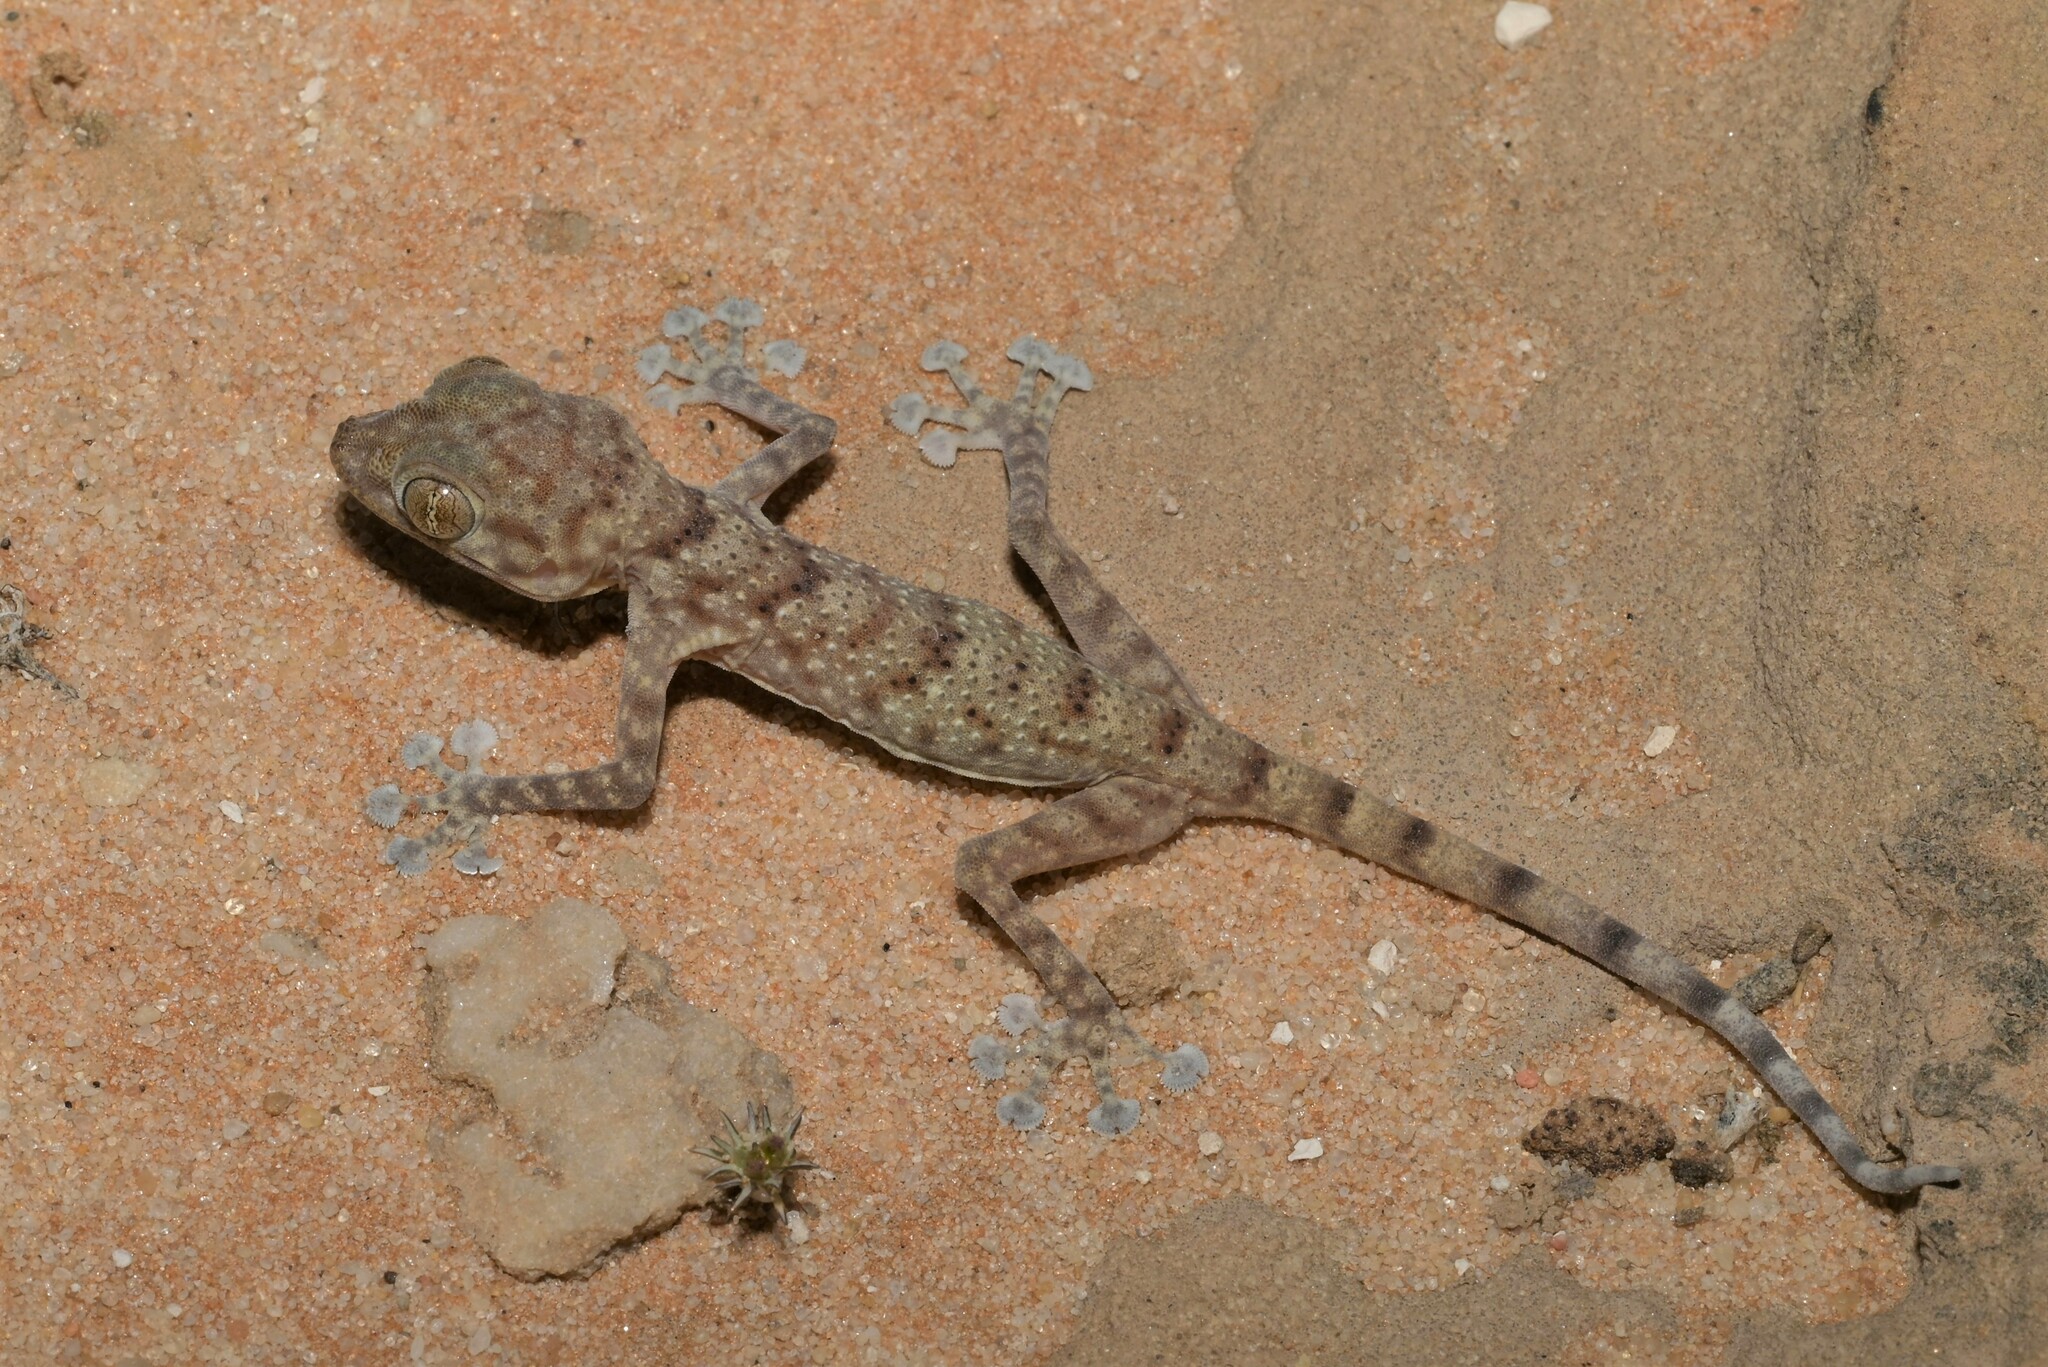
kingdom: Animalia
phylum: Chordata
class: Squamata
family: Phyllodactylidae
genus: Ptyodactylus
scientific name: Ptyodactylus hasselquistii
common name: Hasselquist’s fan-footed gecko
